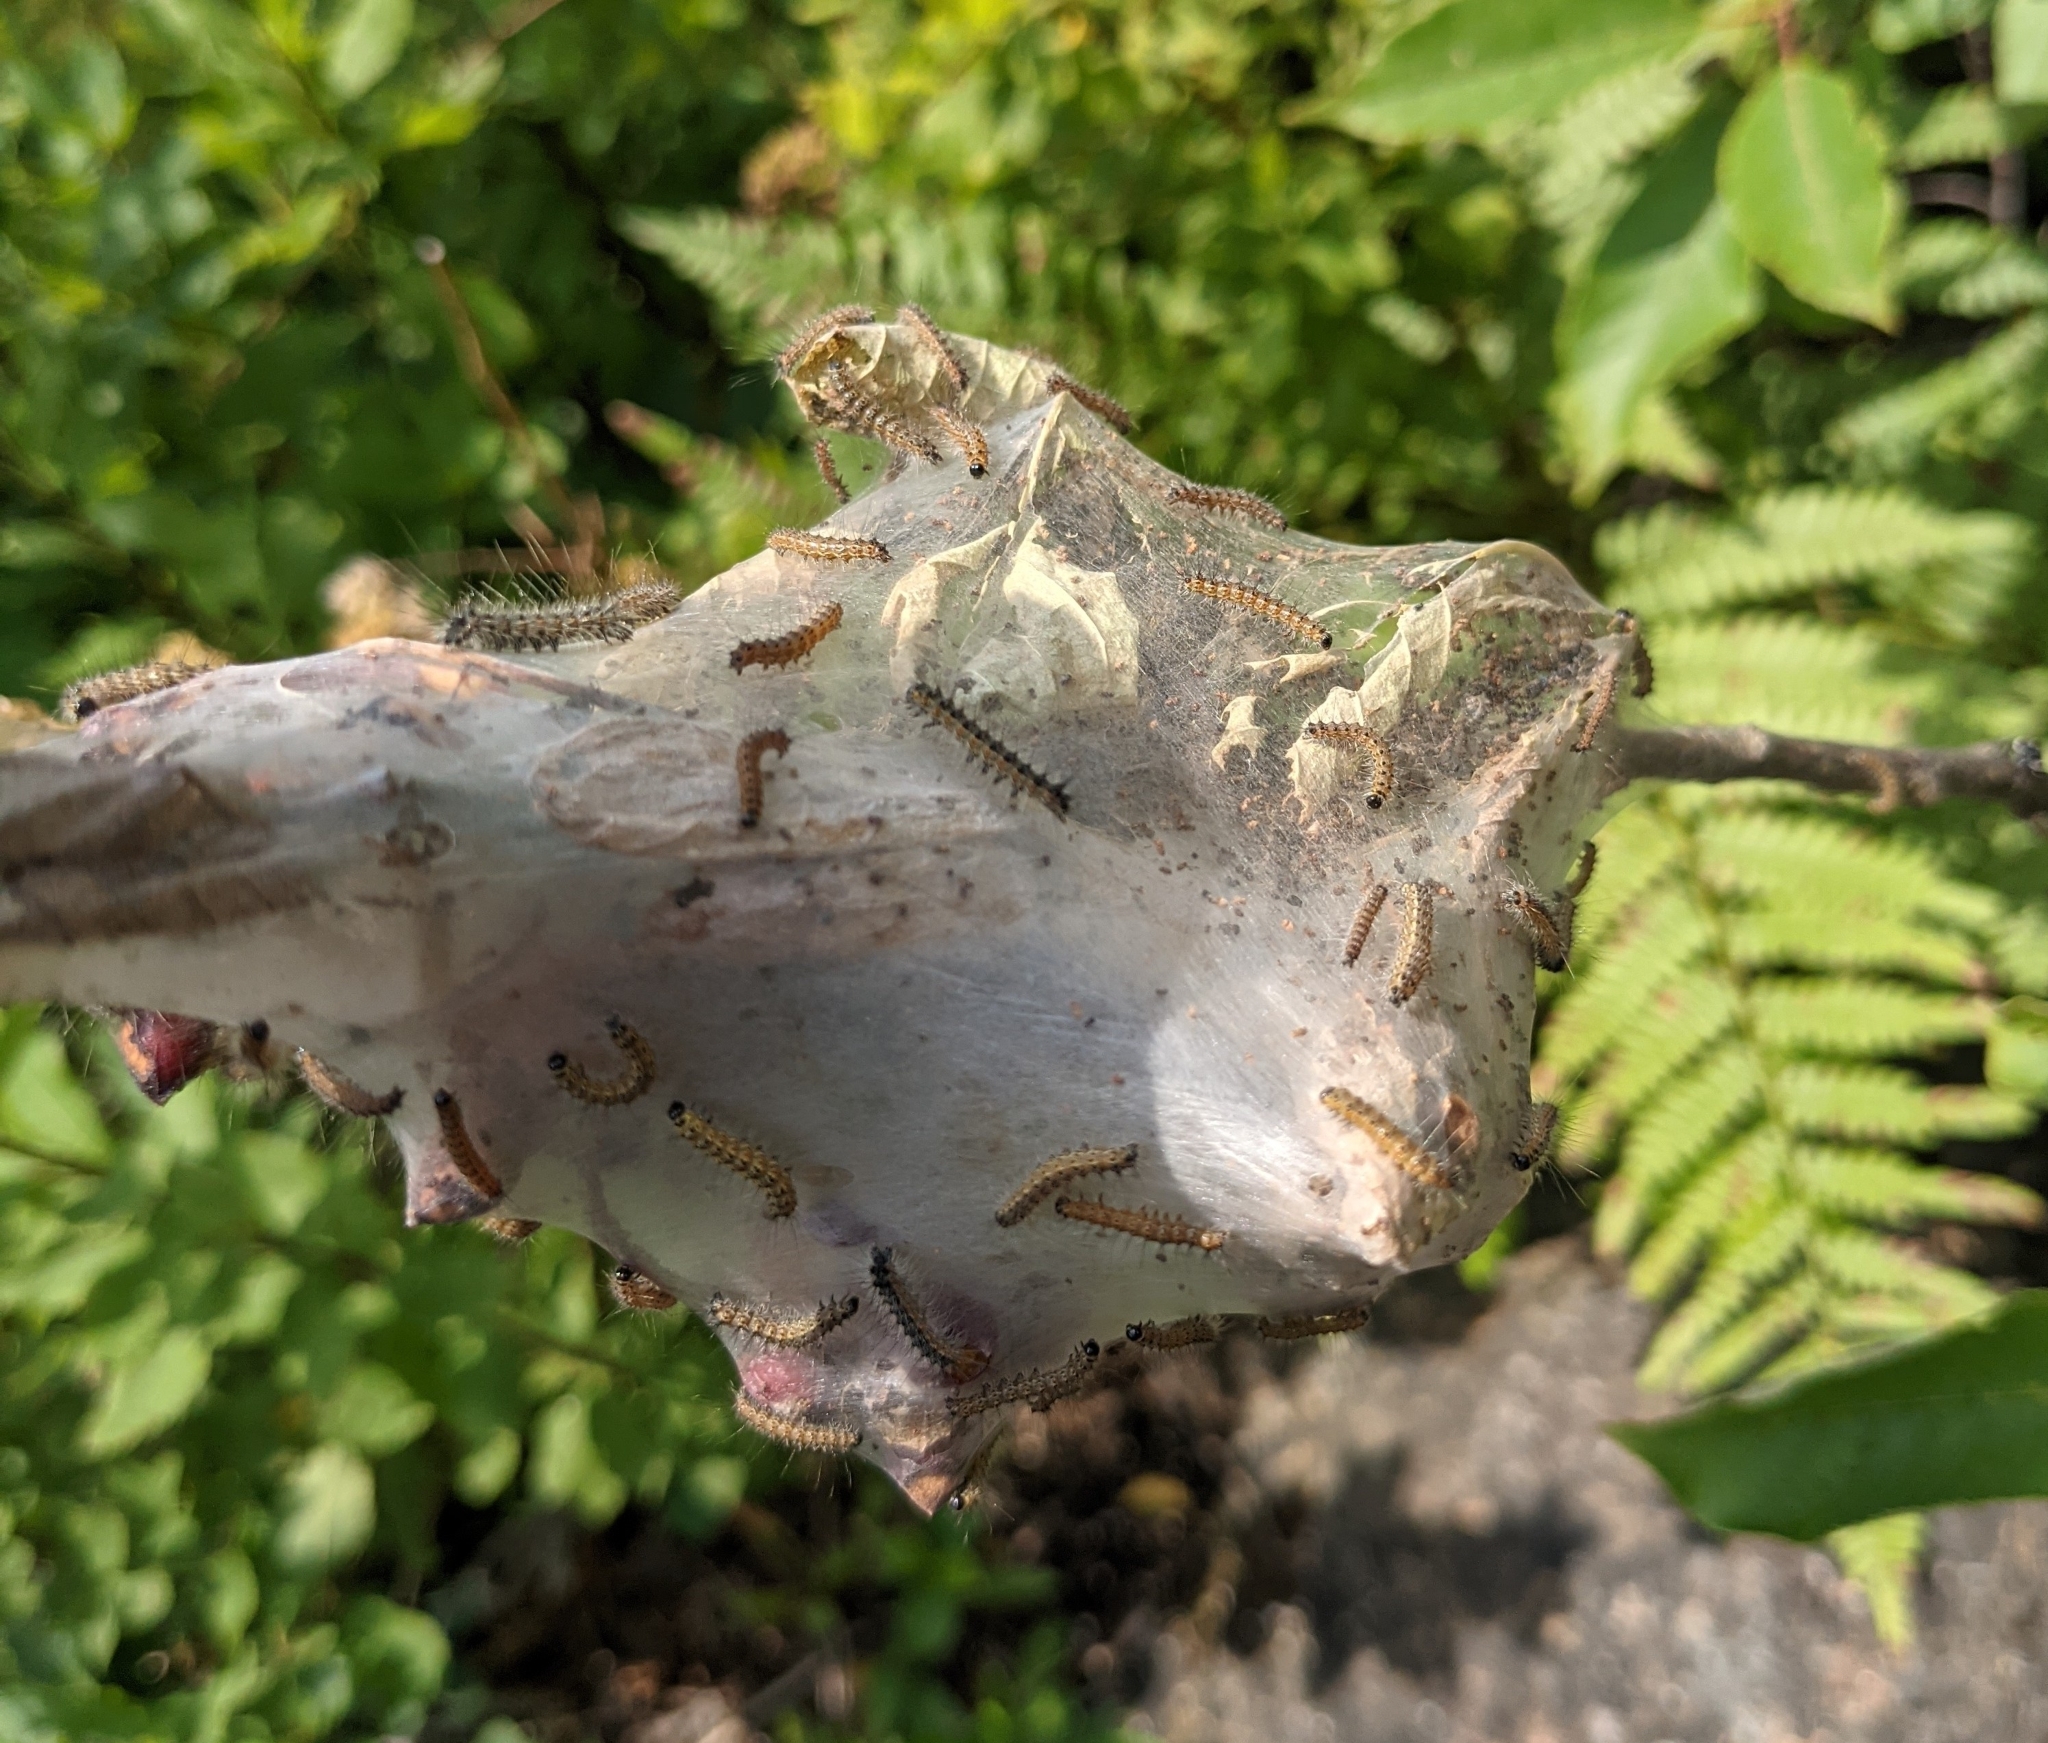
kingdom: Animalia
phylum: Arthropoda
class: Insecta
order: Lepidoptera
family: Erebidae
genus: Hyphantria
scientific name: Hyphantria cunea
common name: American white moth
